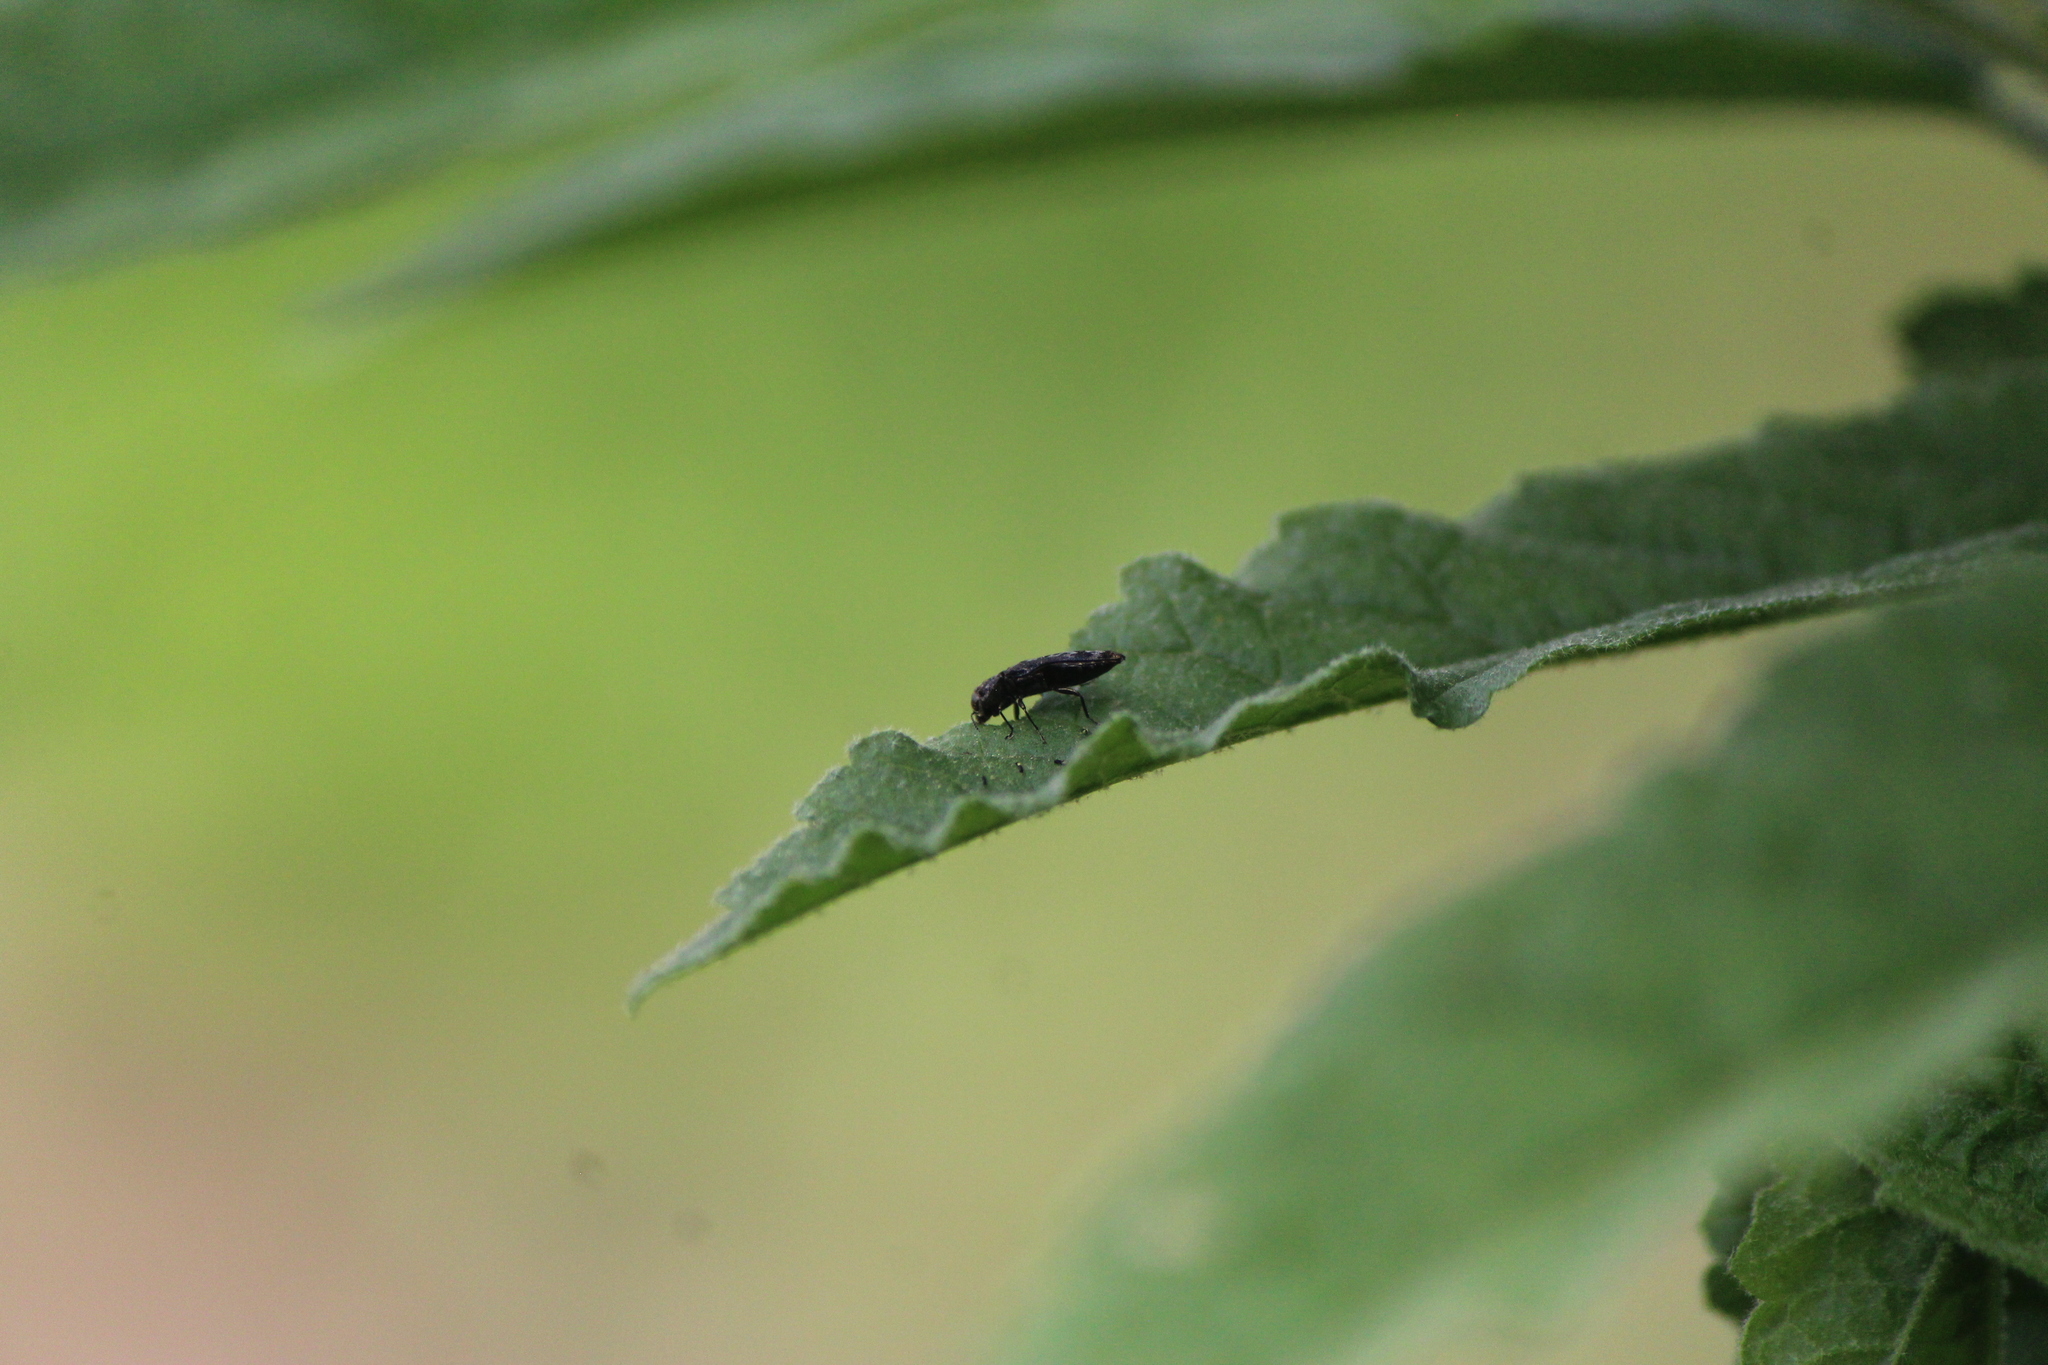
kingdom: Animalia
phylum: Arthropoda
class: Insecta
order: Coleoptera
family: Buprestidae
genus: Agrilus
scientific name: Agrilus sallei
